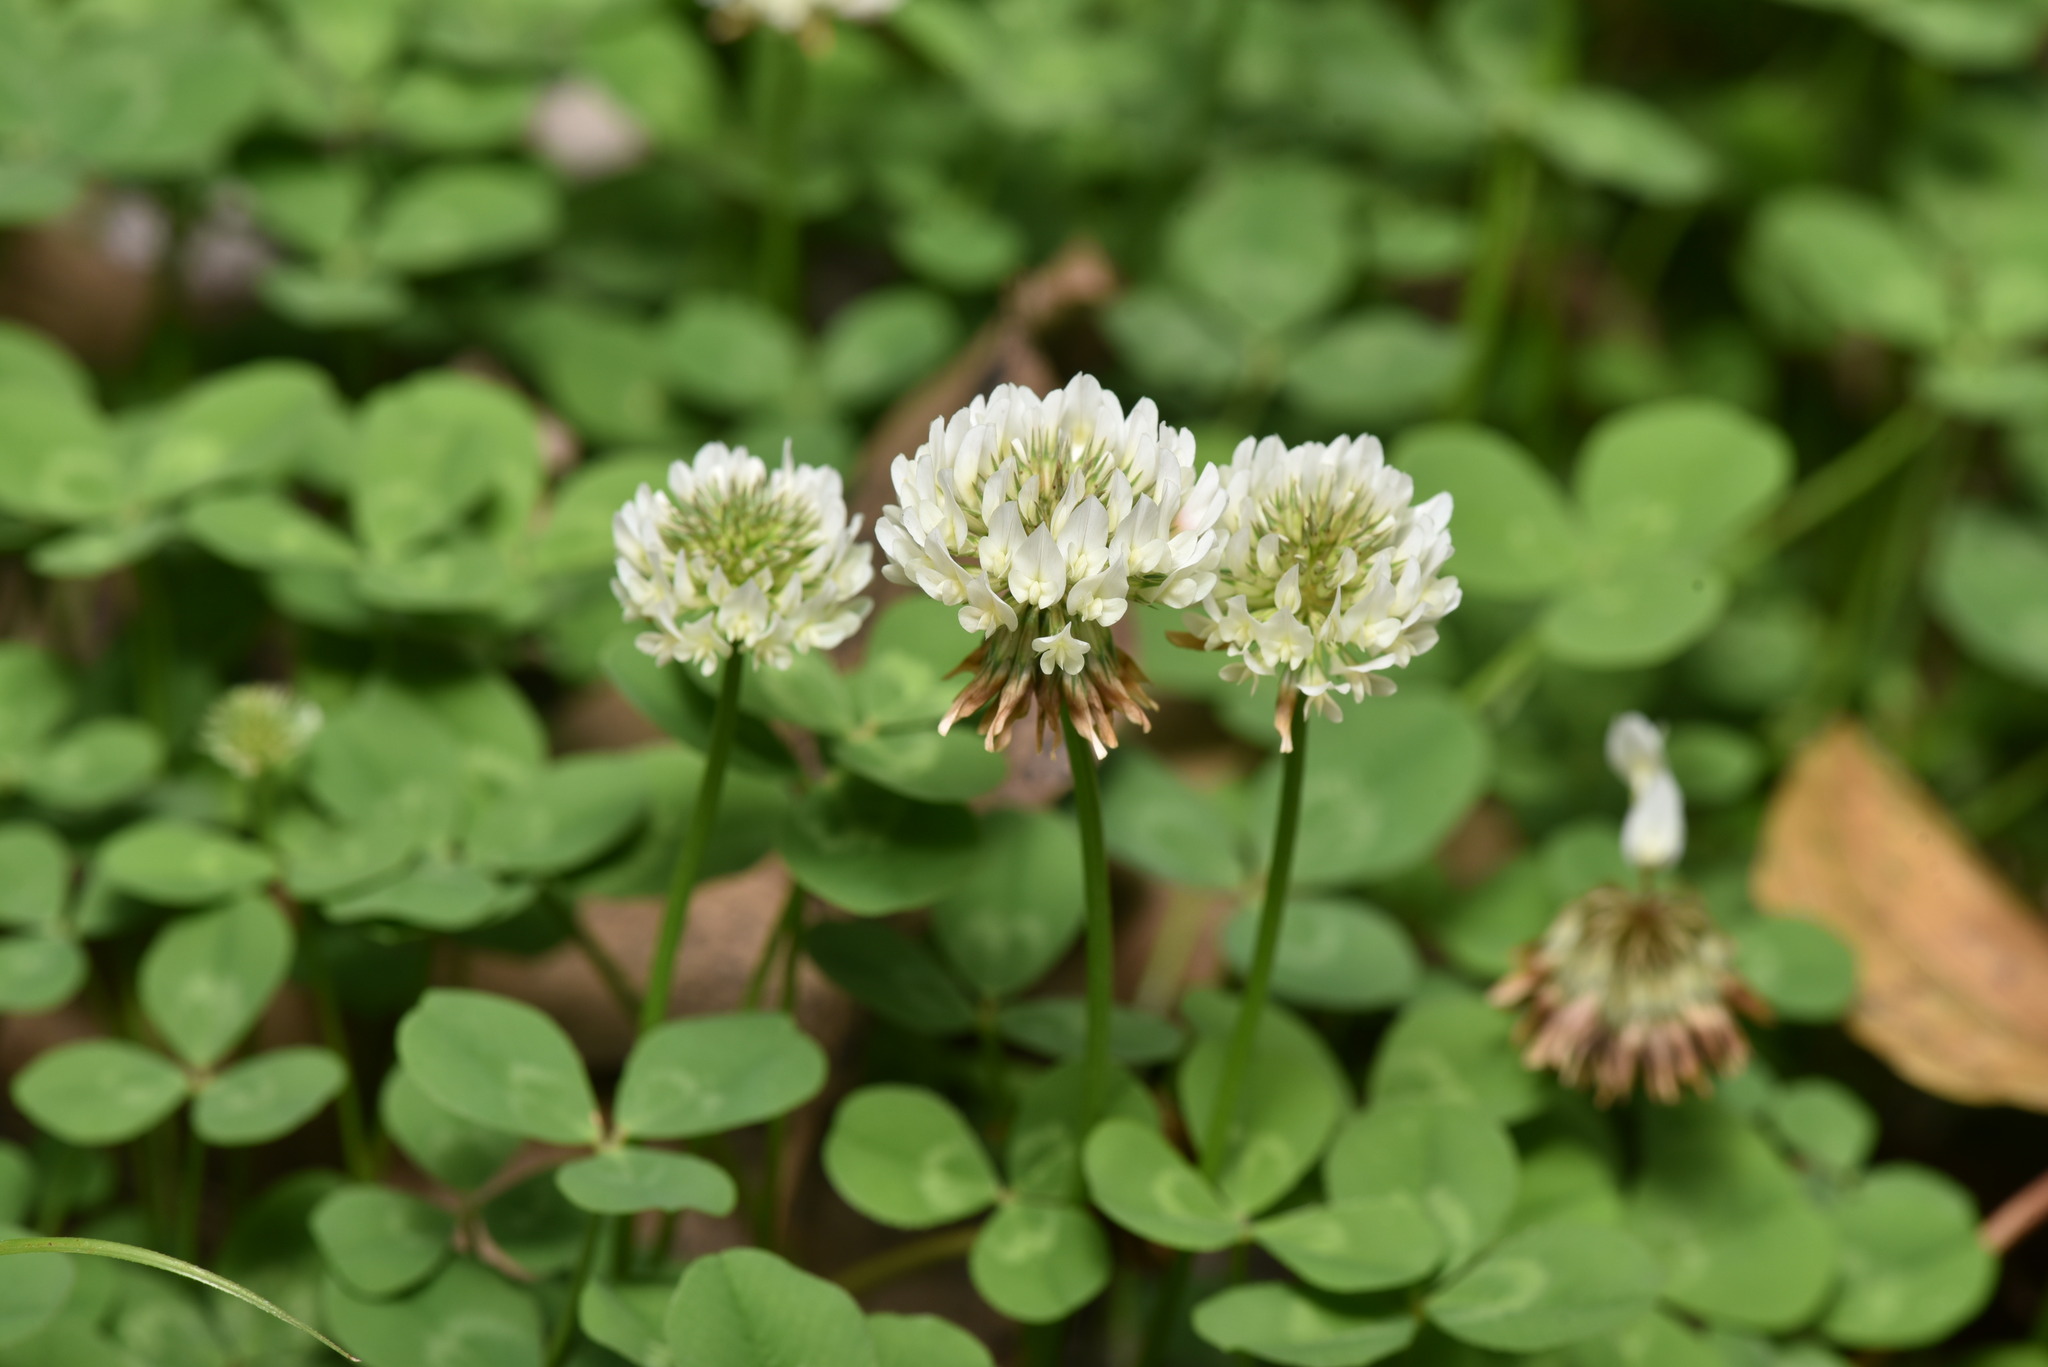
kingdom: Plantae
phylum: Tracheophyta
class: Magnoliopsida
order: Fabales
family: Fabaceae
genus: Trifolium
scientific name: Trifolium repens
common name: White clover
